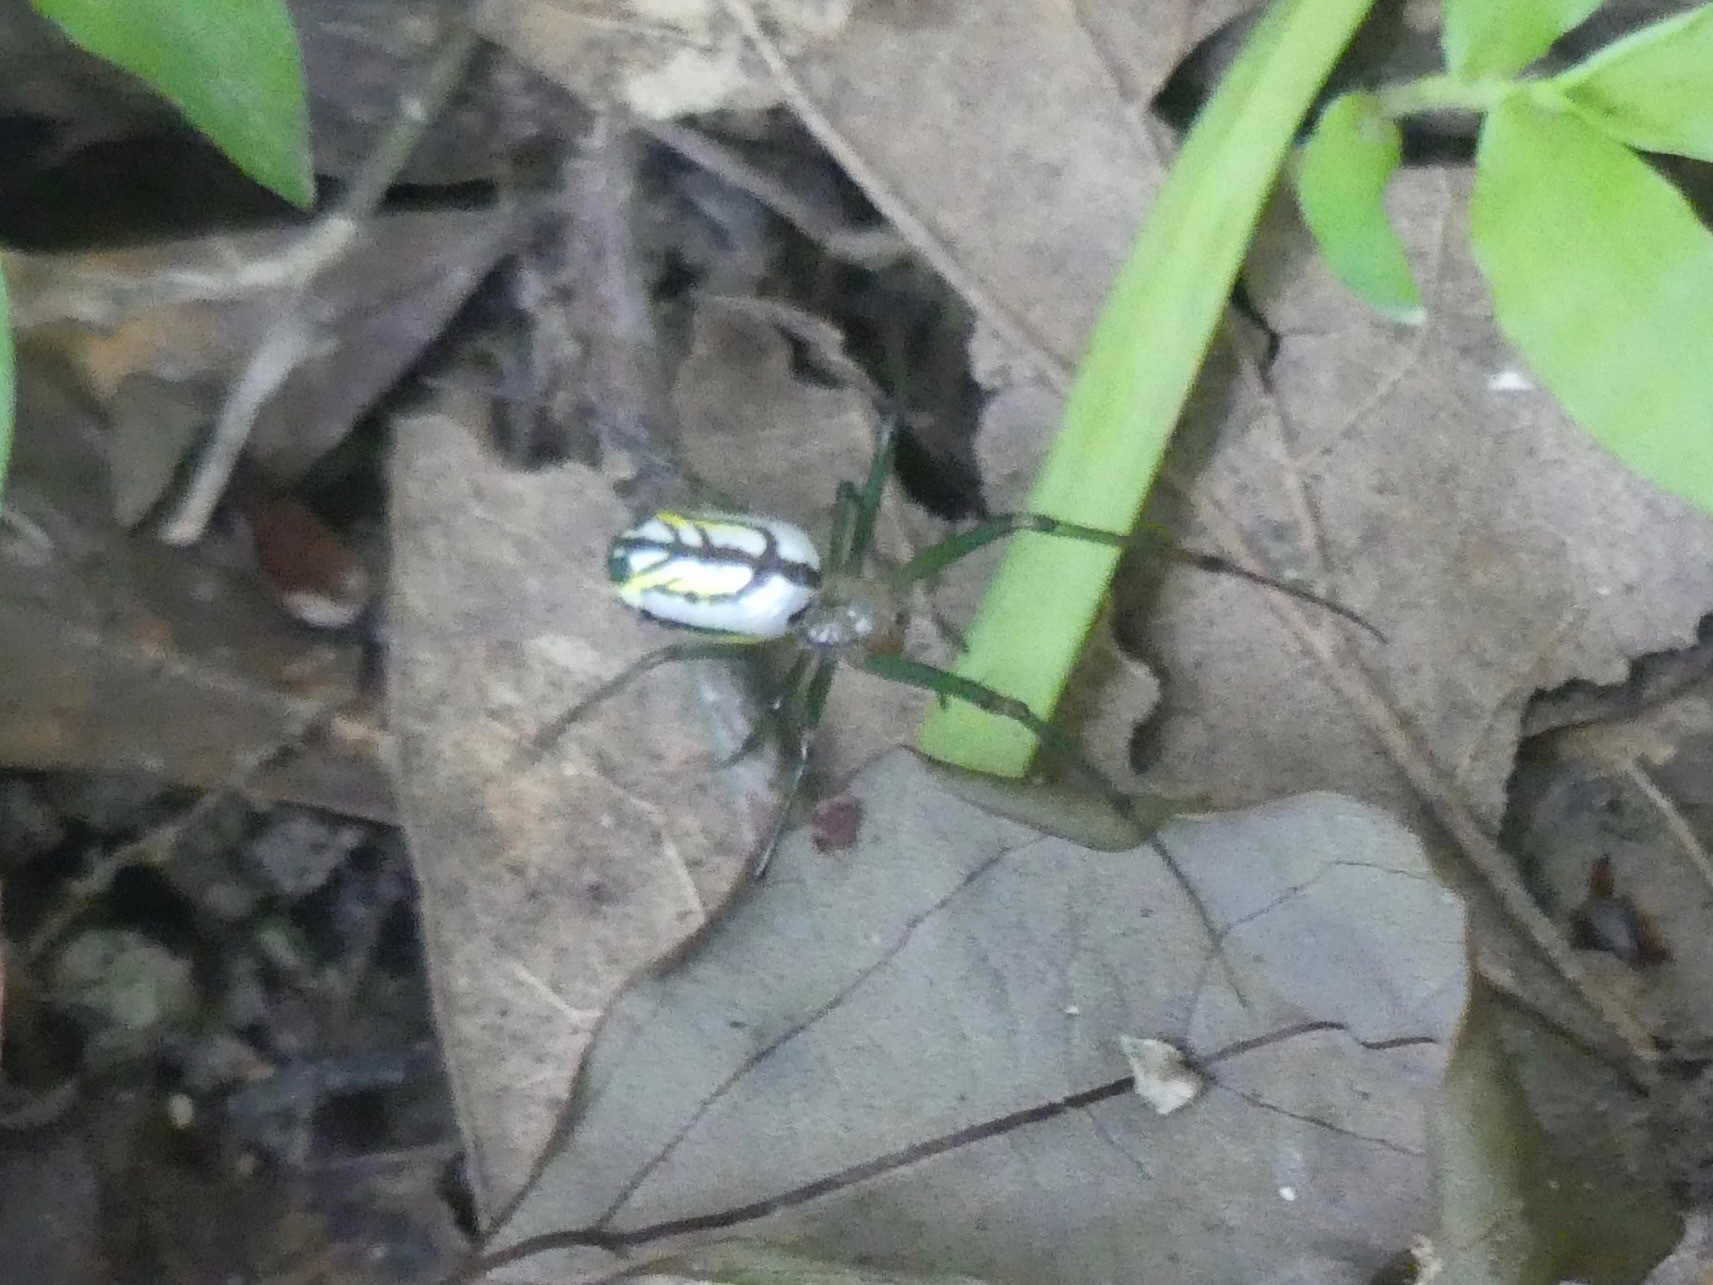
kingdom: Animalia
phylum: Arthropoda
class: Arachnida
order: Araneae
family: Tetragnathidae
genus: Leucauge
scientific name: Leucauge venusta
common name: Longjawed orb weavers
